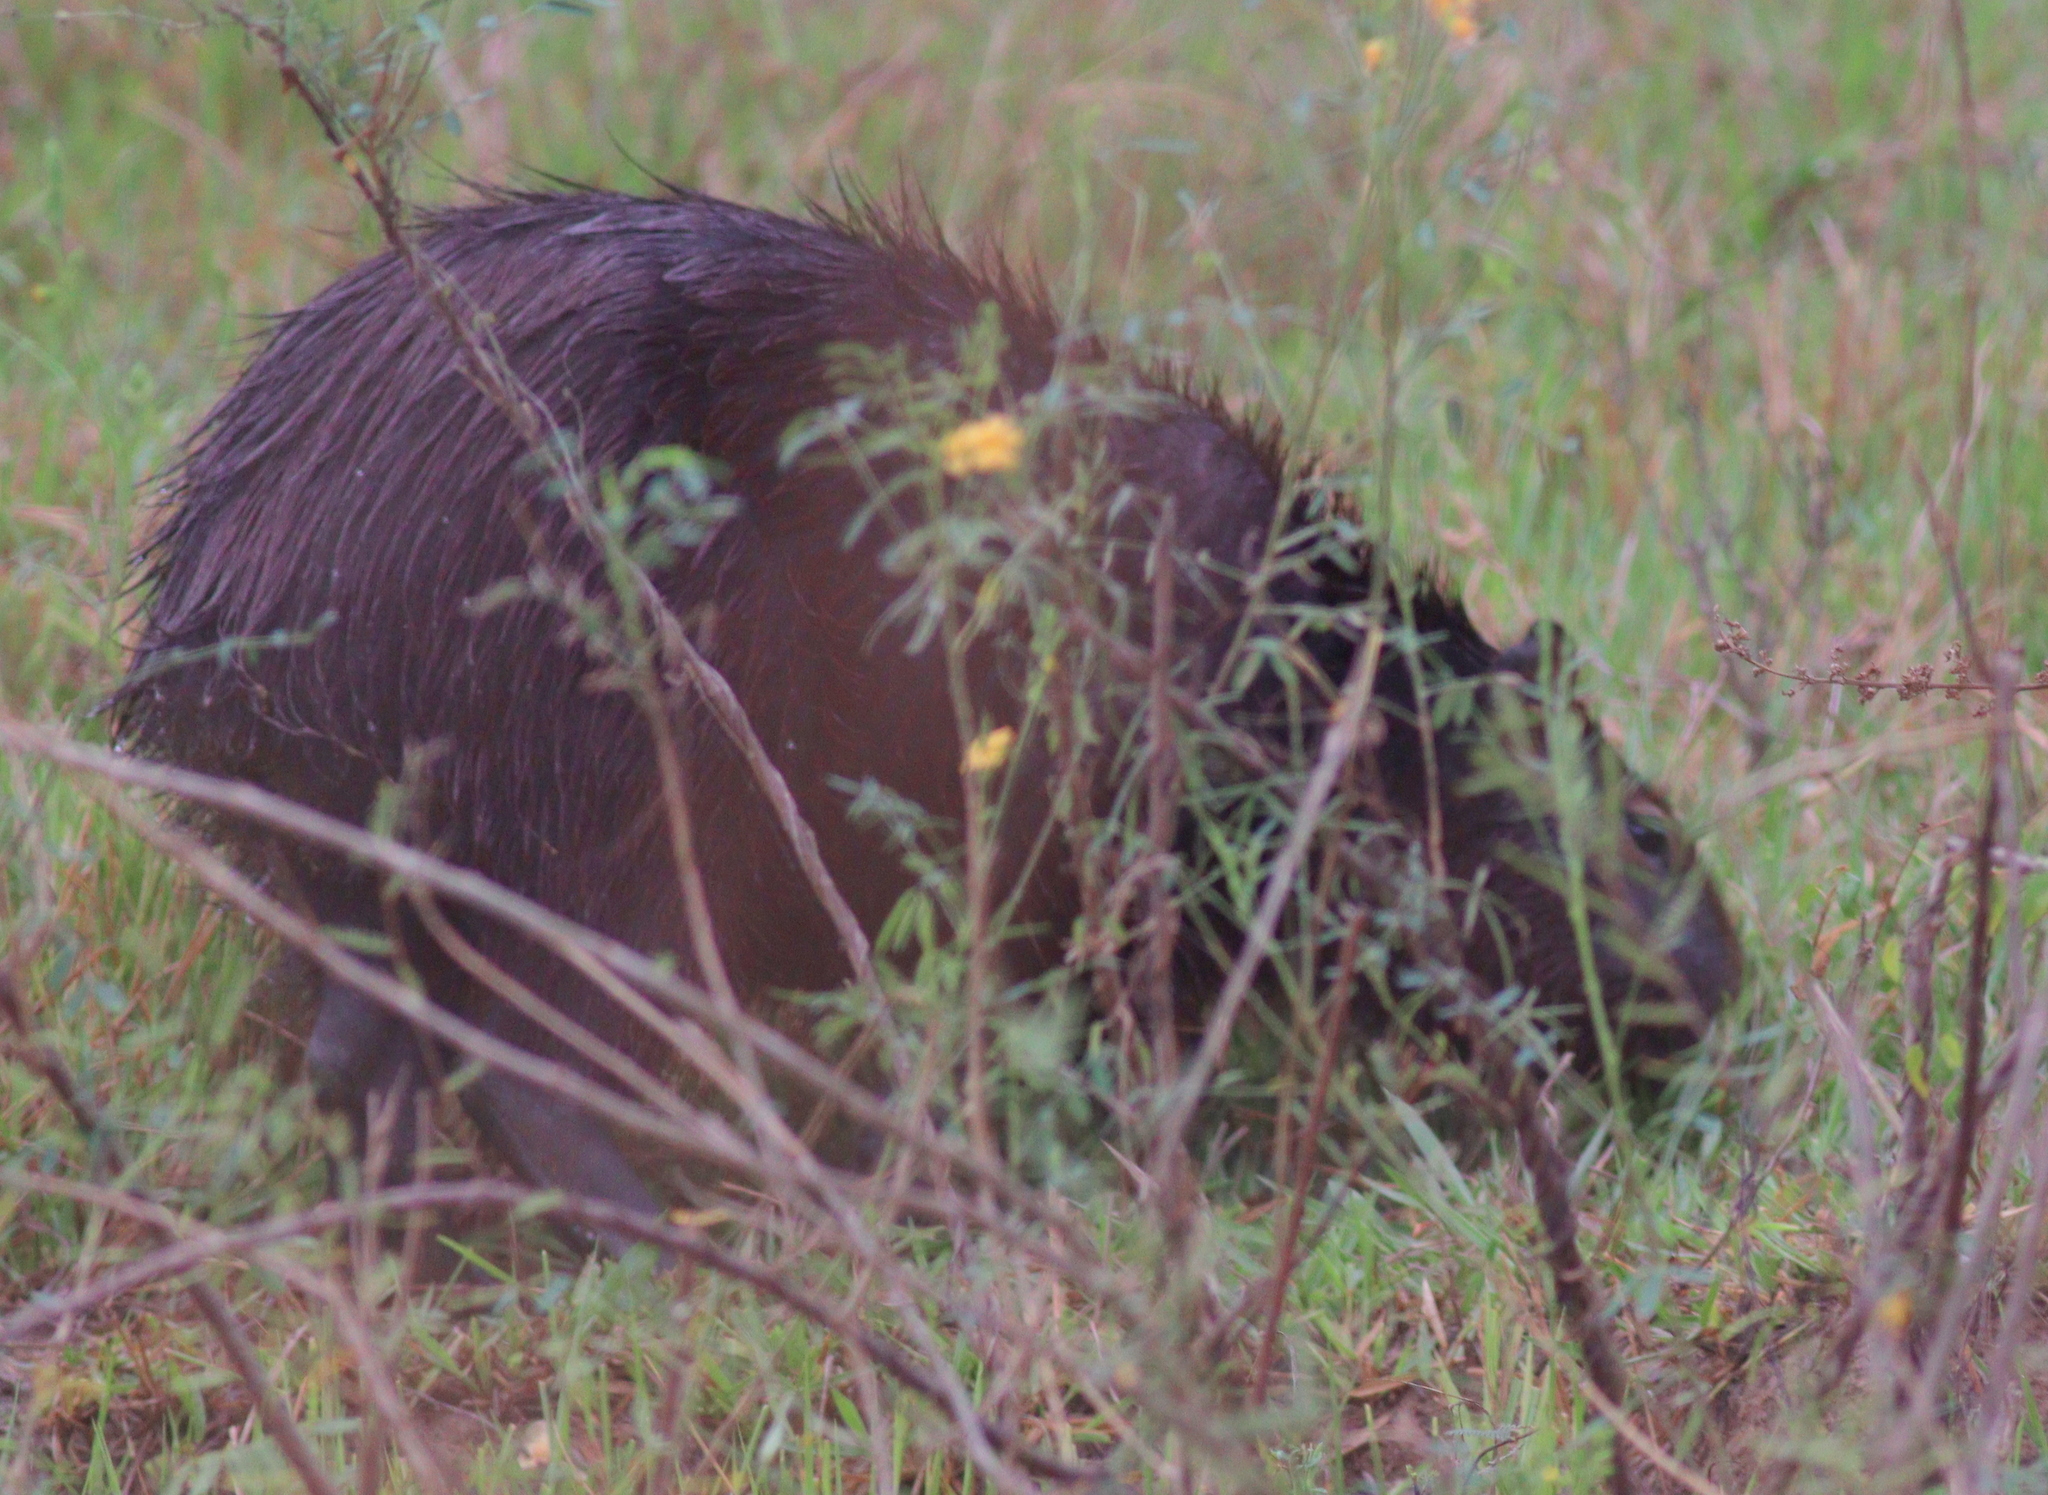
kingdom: Animalia
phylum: Chordata
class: Mammalia
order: Rodentia
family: Caviidae
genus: Hydrochoerus
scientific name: Hydrochoerus hydrochaeris
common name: Capybara
